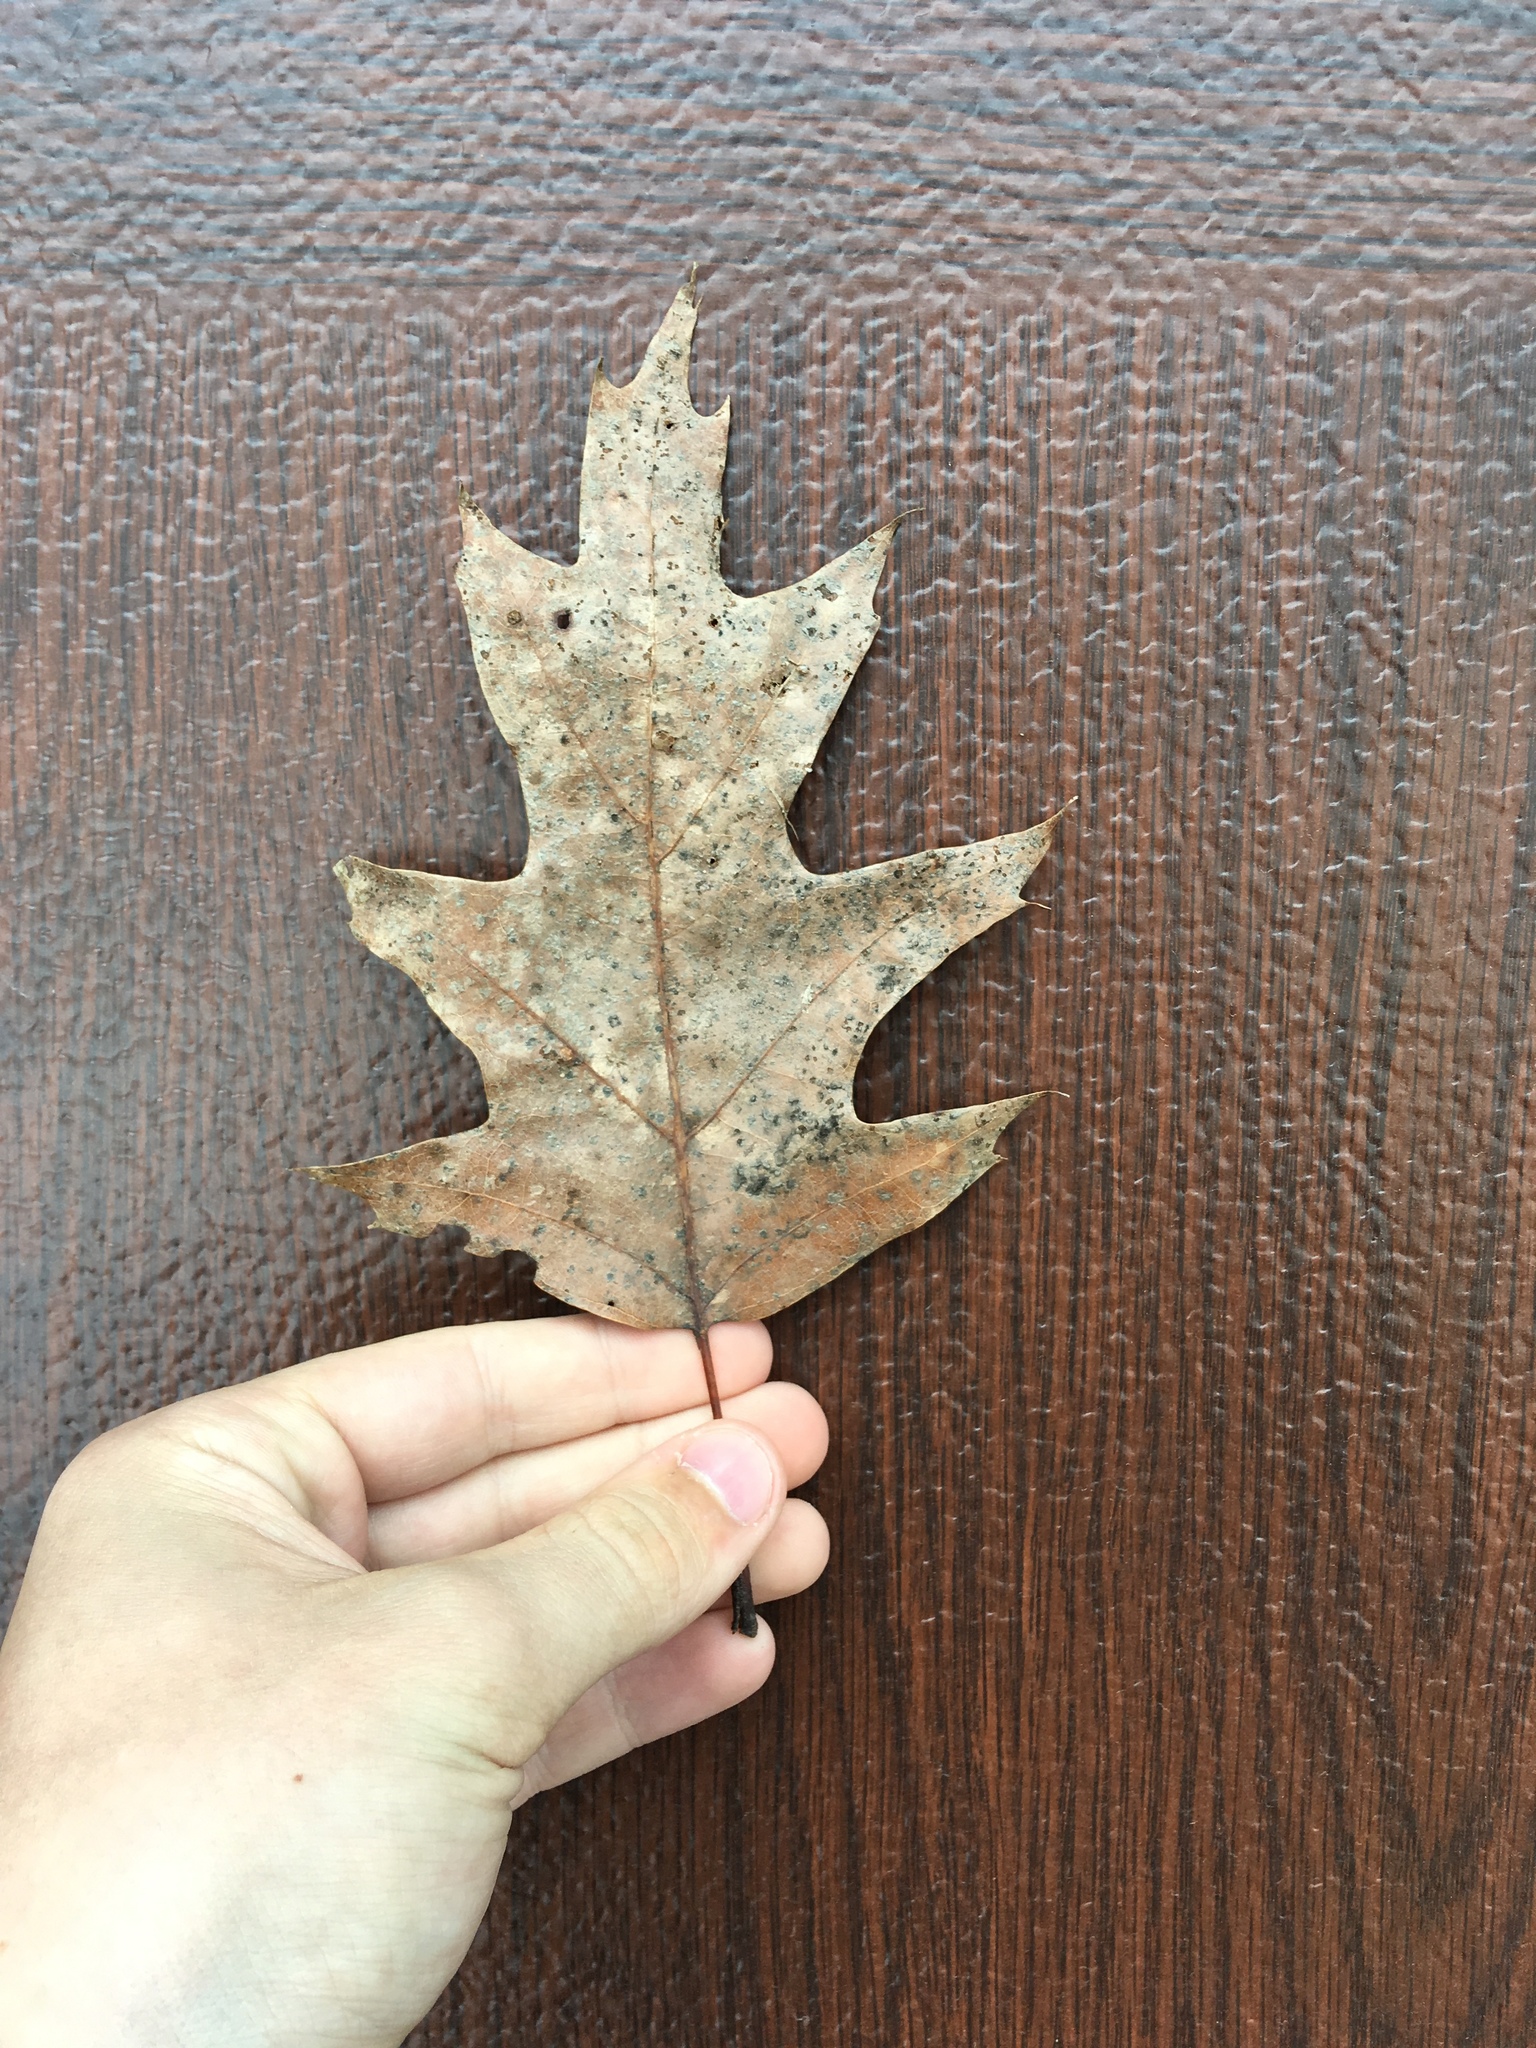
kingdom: Plantae
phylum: Tracheophyta
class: Magnoliopsida
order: Fagales
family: Fagaceae
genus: Quercus
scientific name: Quercus rubra
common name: Red oak
